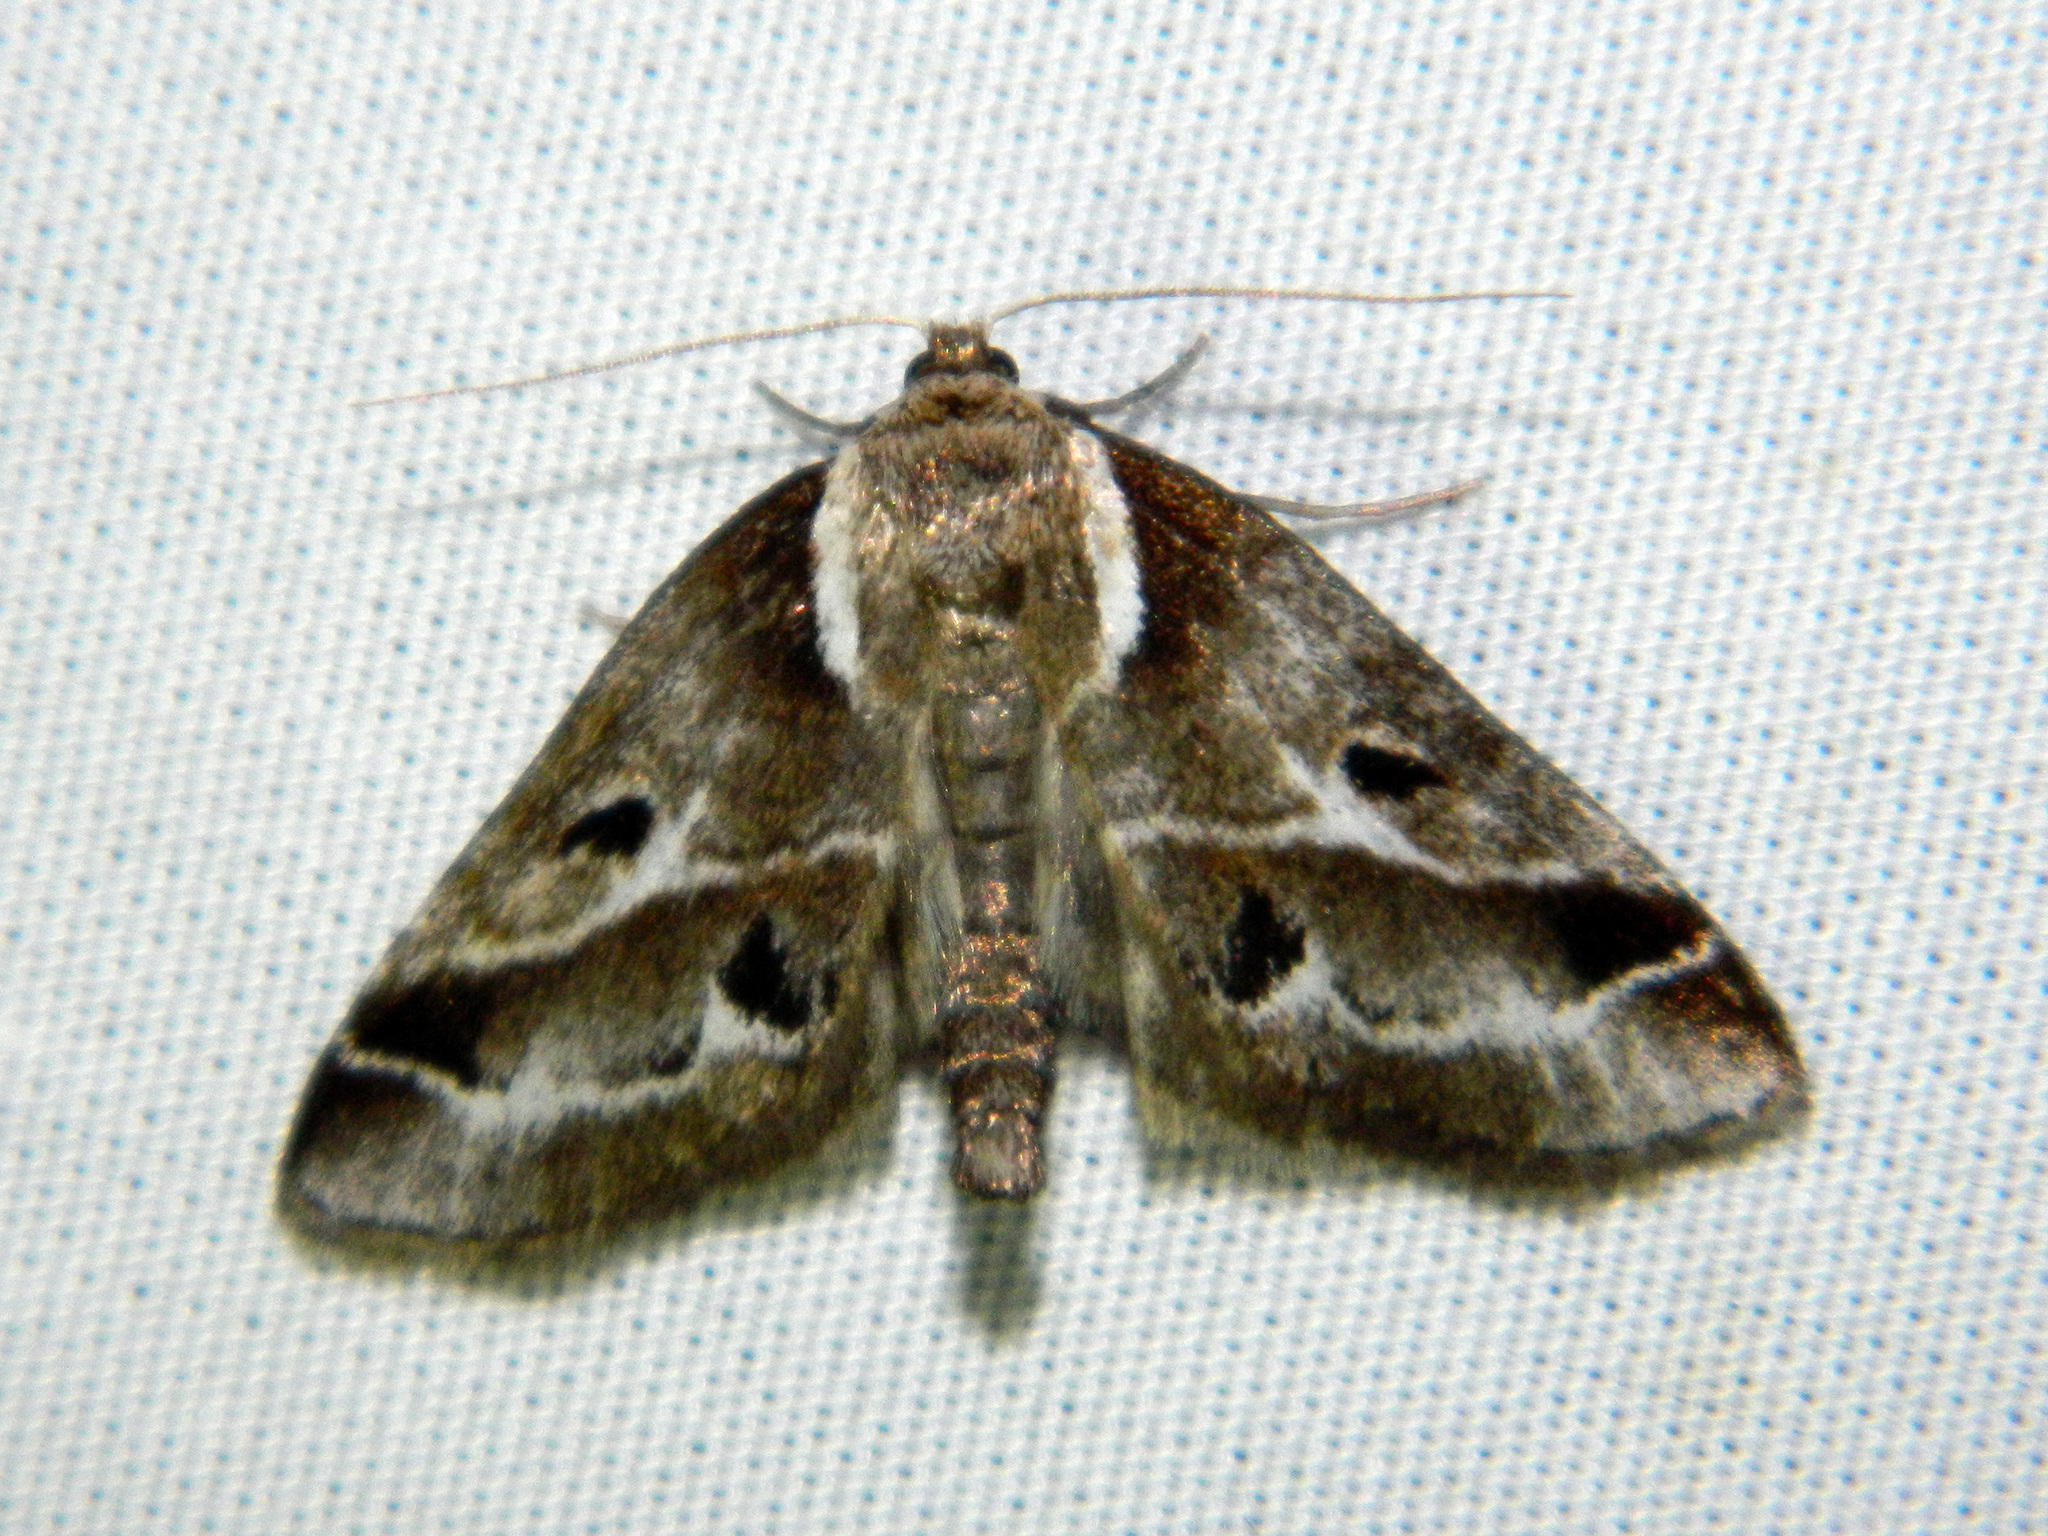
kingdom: Animalia
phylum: Arthropoda
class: Insecta
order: Lepidoptera
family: Nolidae
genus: Baileya
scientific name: Baileya doubledayi
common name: Doubleday's baileya moth
